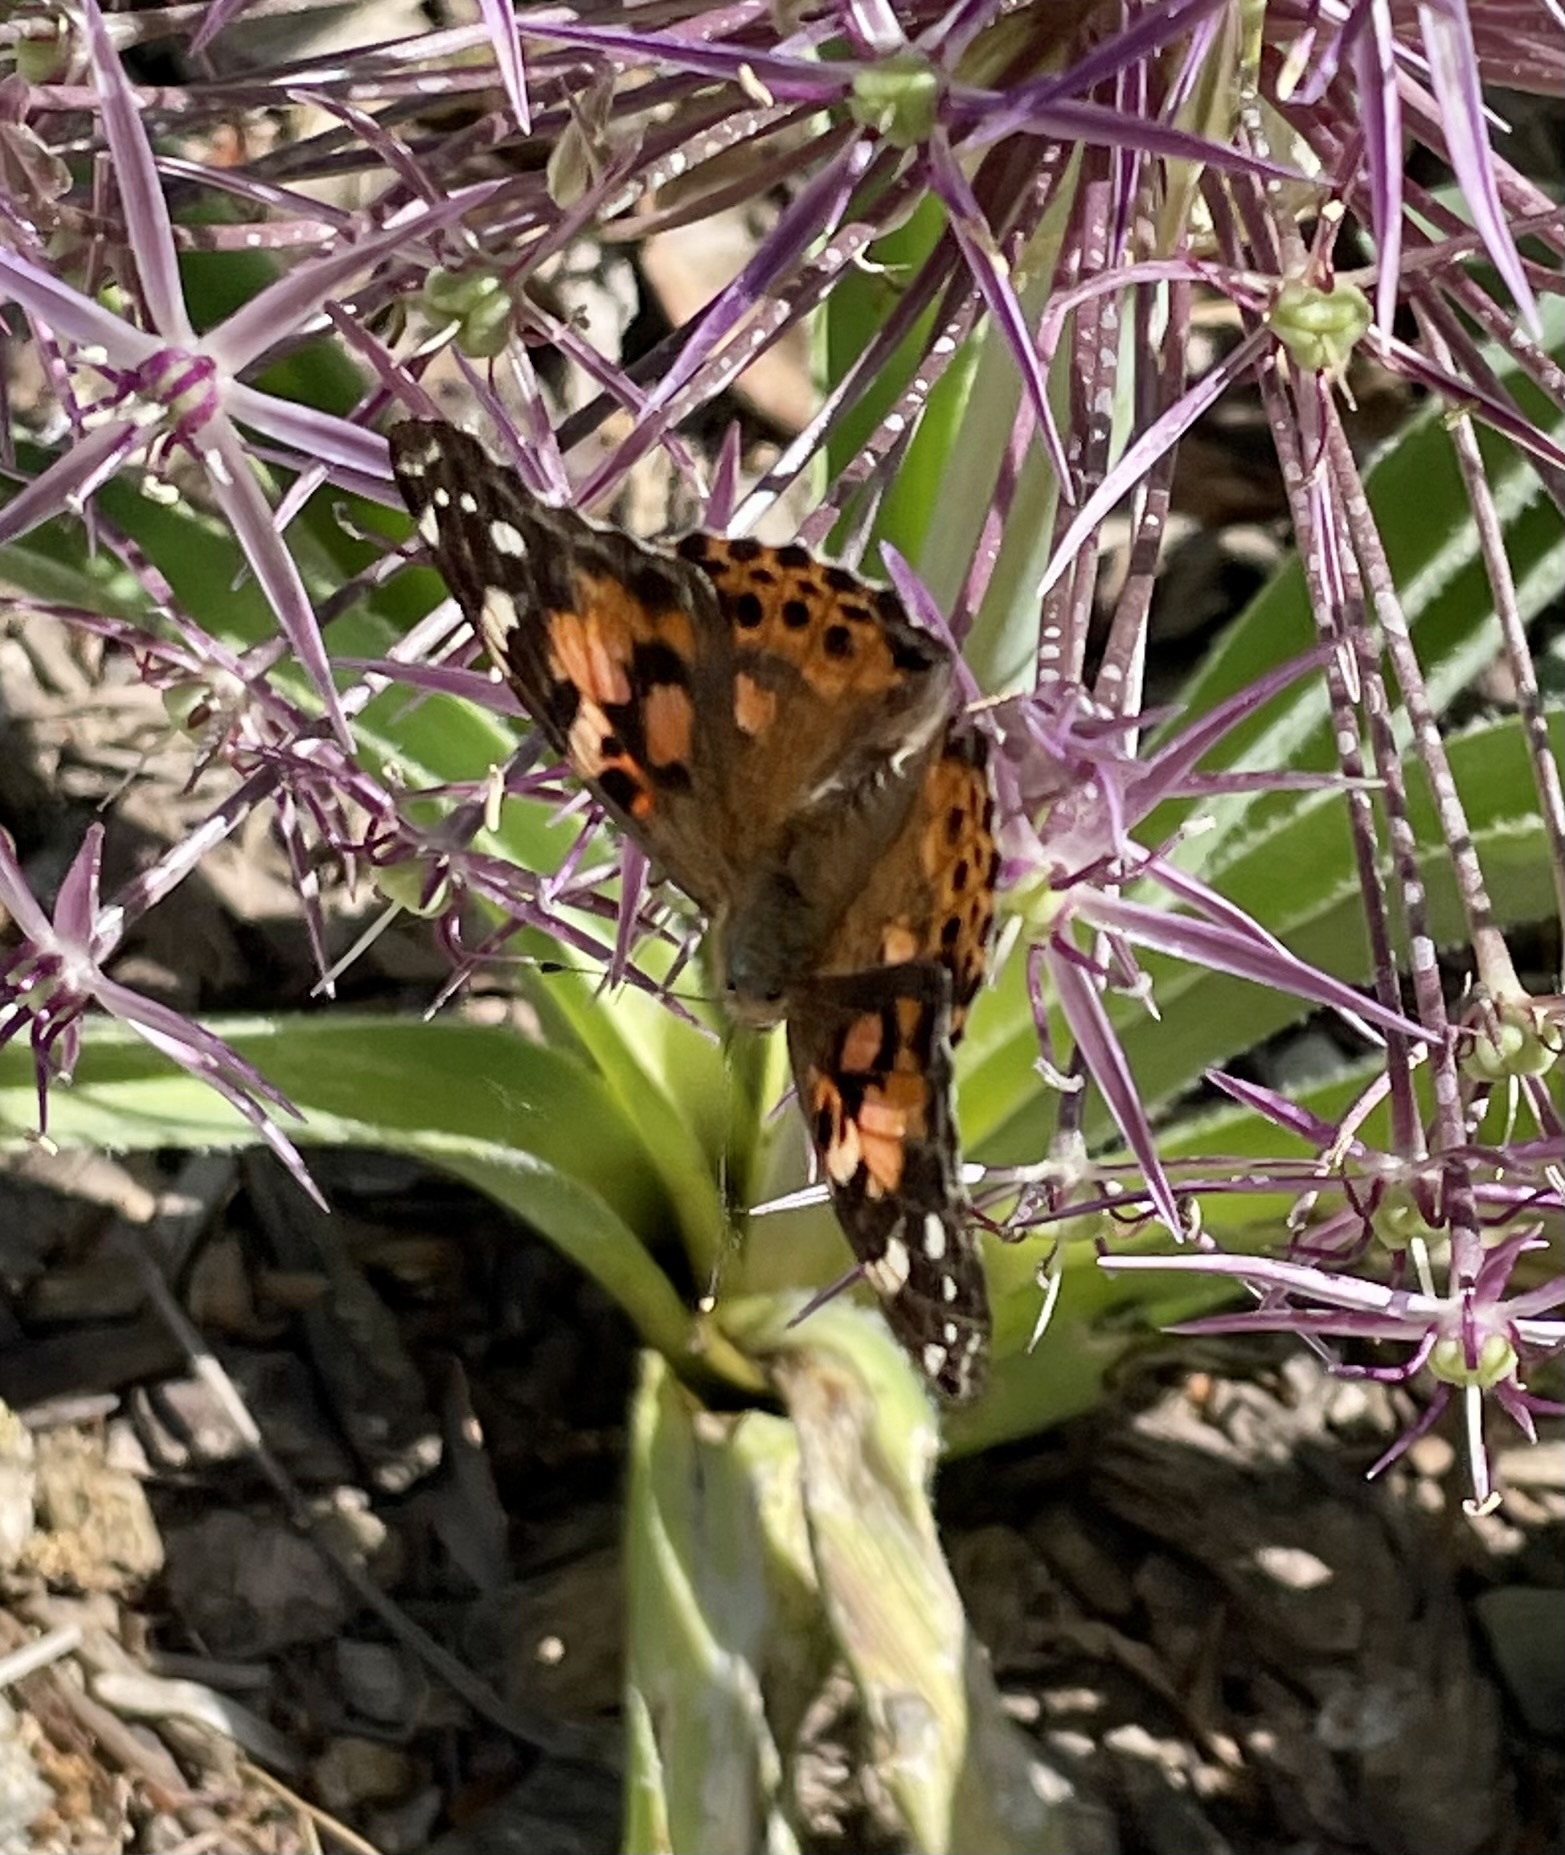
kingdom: Animalia
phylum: Arthropoda
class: Insecta
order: Lepidoptera
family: Nymphalidae
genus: Vanessa
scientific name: Vanessa cardui
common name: Painted lady
